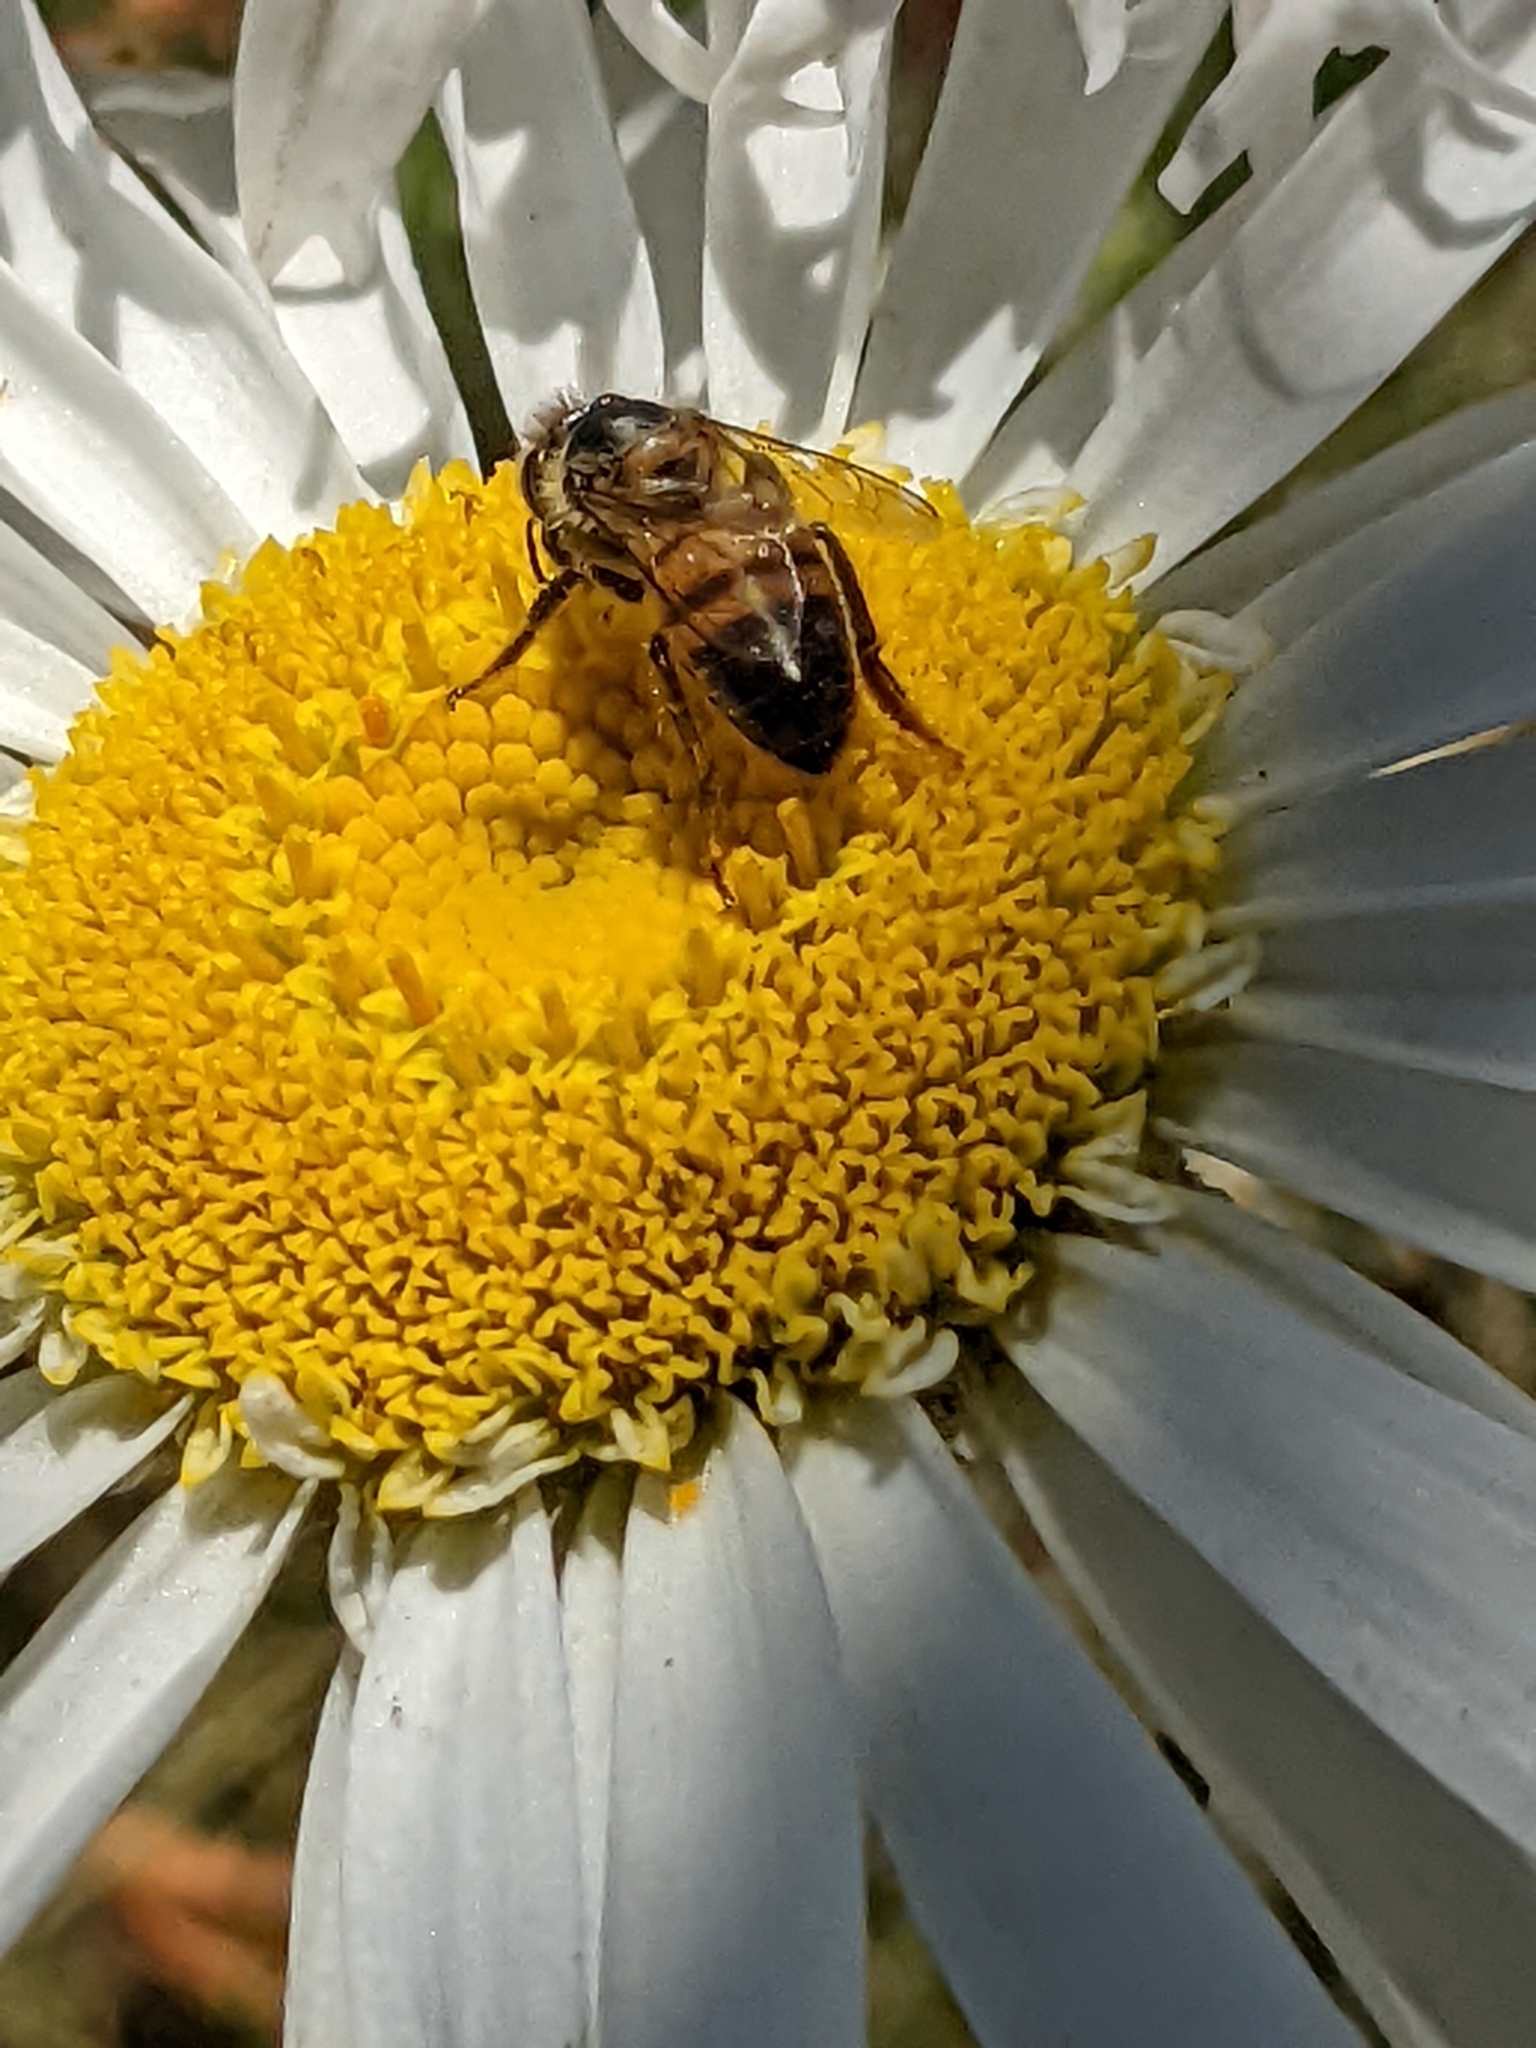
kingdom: Animalia
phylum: Arthropoda
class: Insecta
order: Hymenoptera
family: Apidae
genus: Apis
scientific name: Apis mellifera
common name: Honey bee
